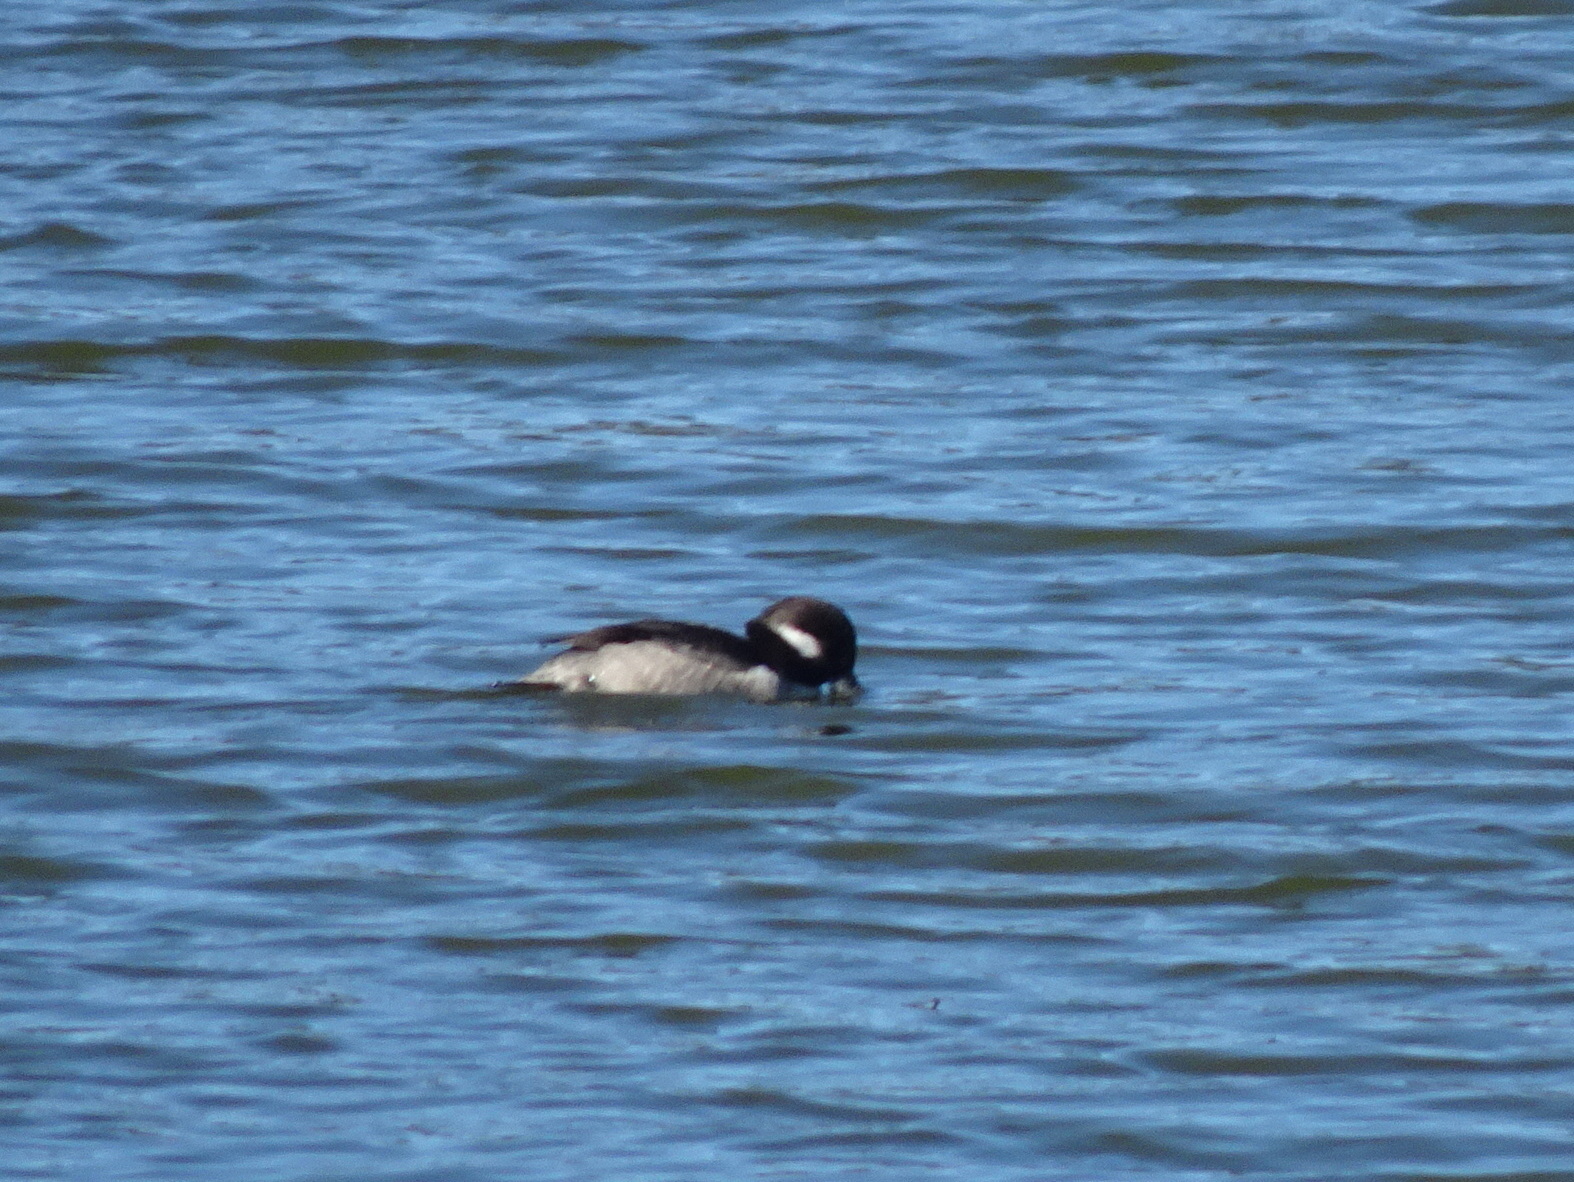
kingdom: Animalia
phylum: Chordata
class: Aves
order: Anseriformes
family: Anatidae
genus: Bucephala
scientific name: Bucephala albeola
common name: Bufflehead
